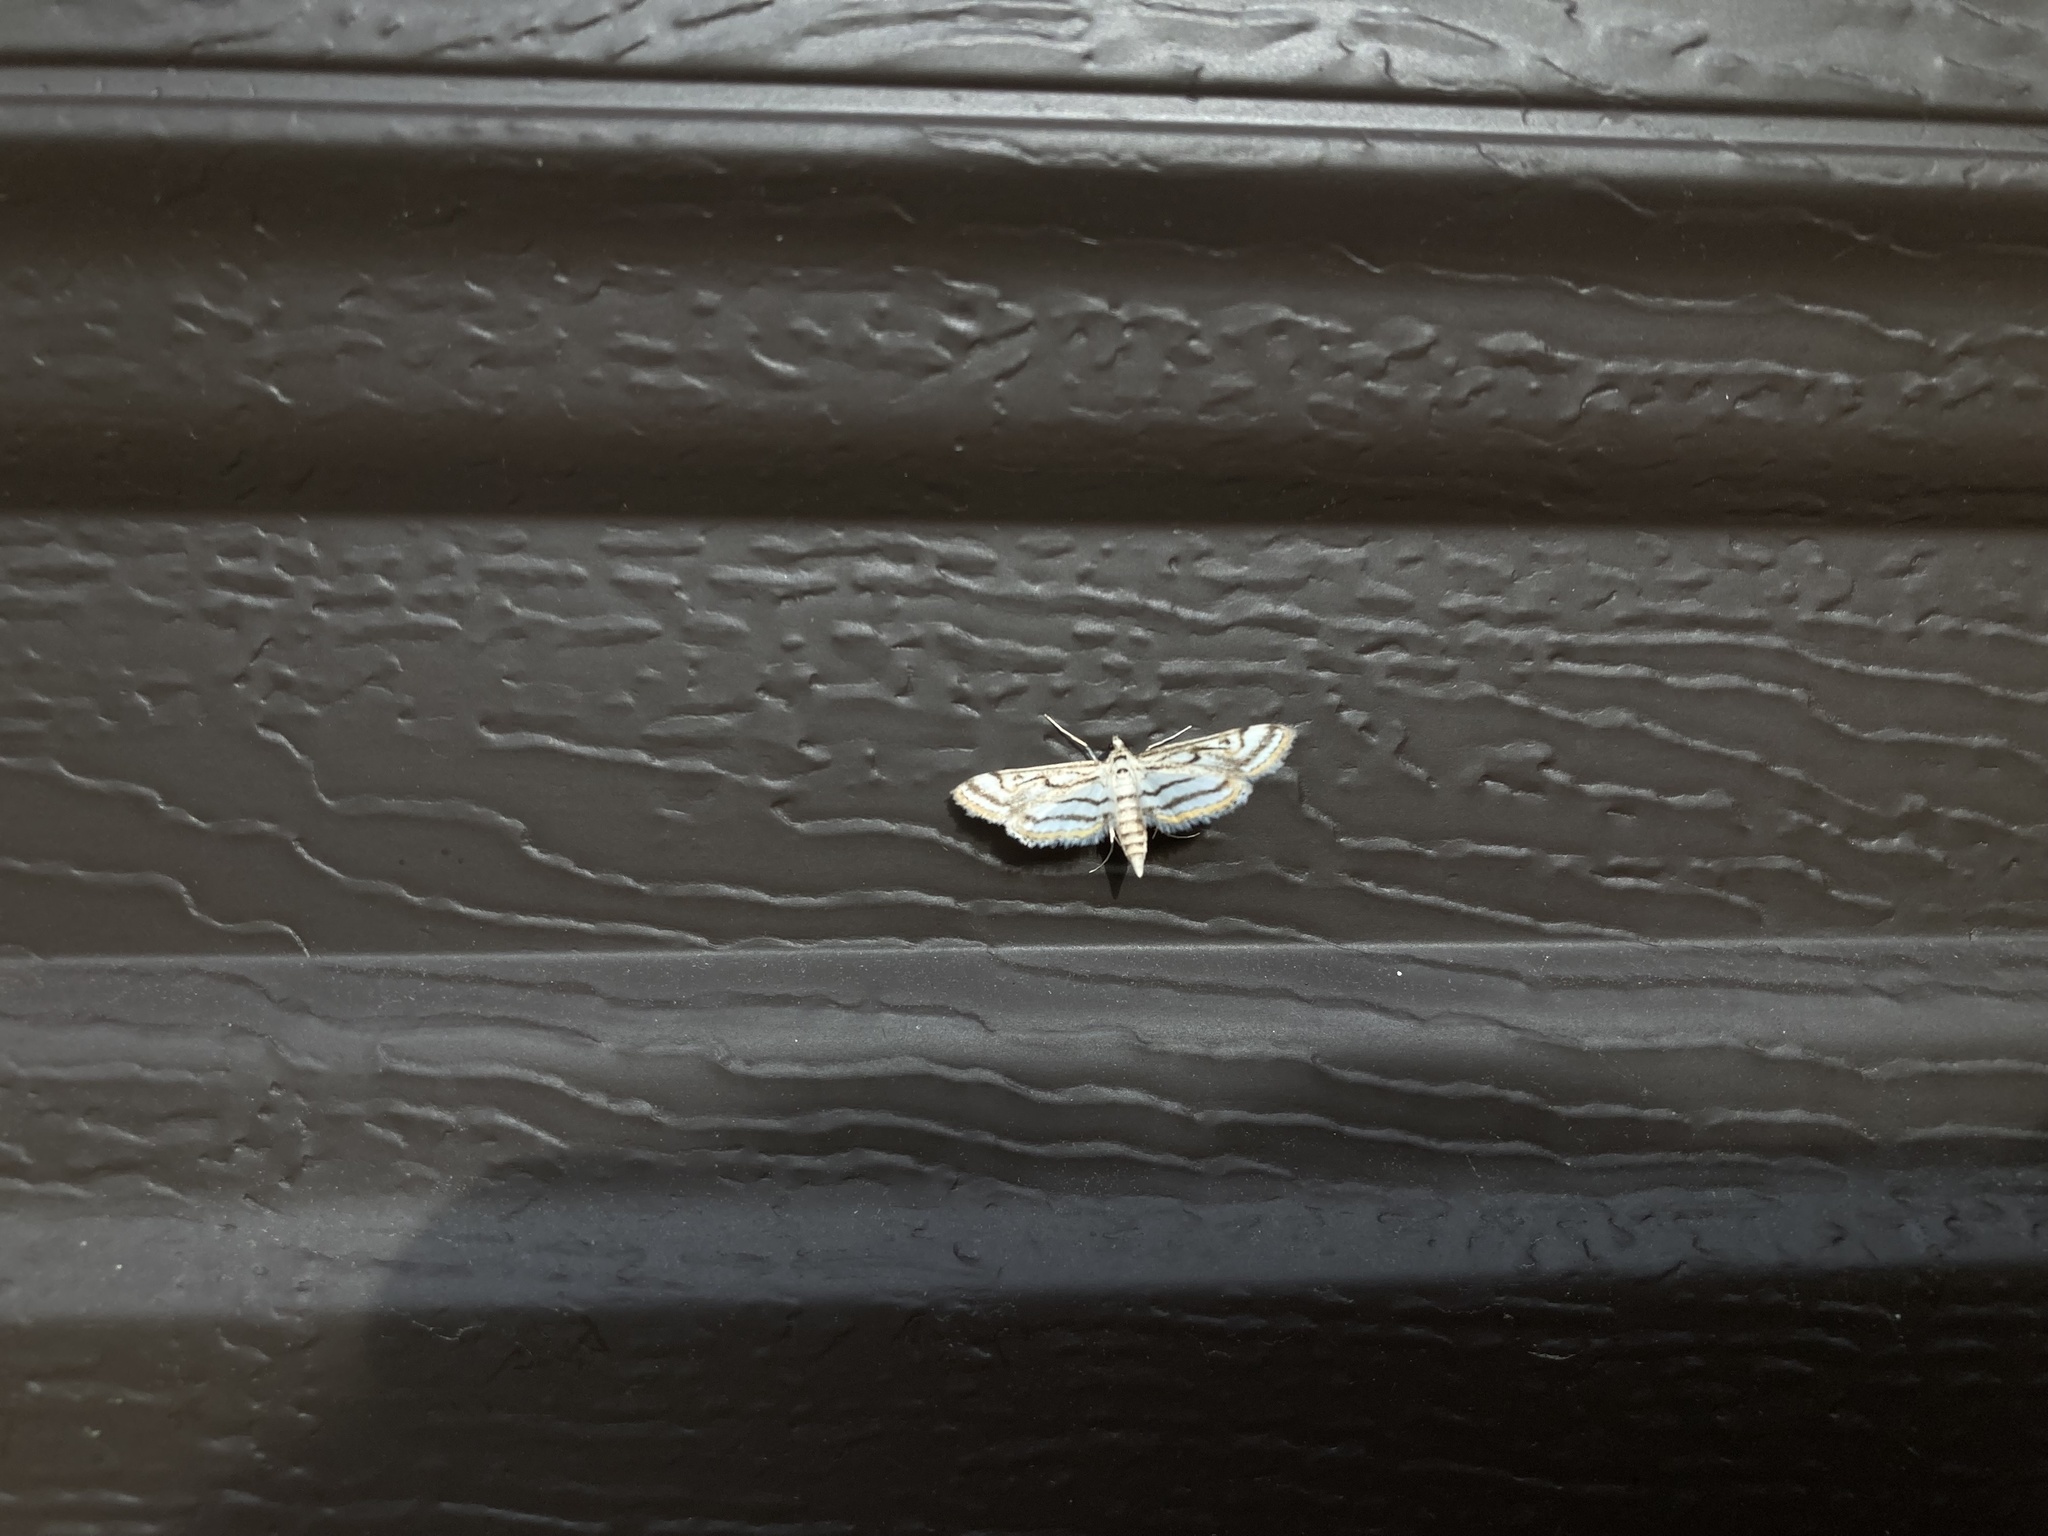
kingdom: Animalia
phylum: Arthropoda
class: Insecta
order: Lepidoptera
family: Crambidae
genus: Parapoynx
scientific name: Parapoynx badiusalis
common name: Chestnut-marked pondweed moth
